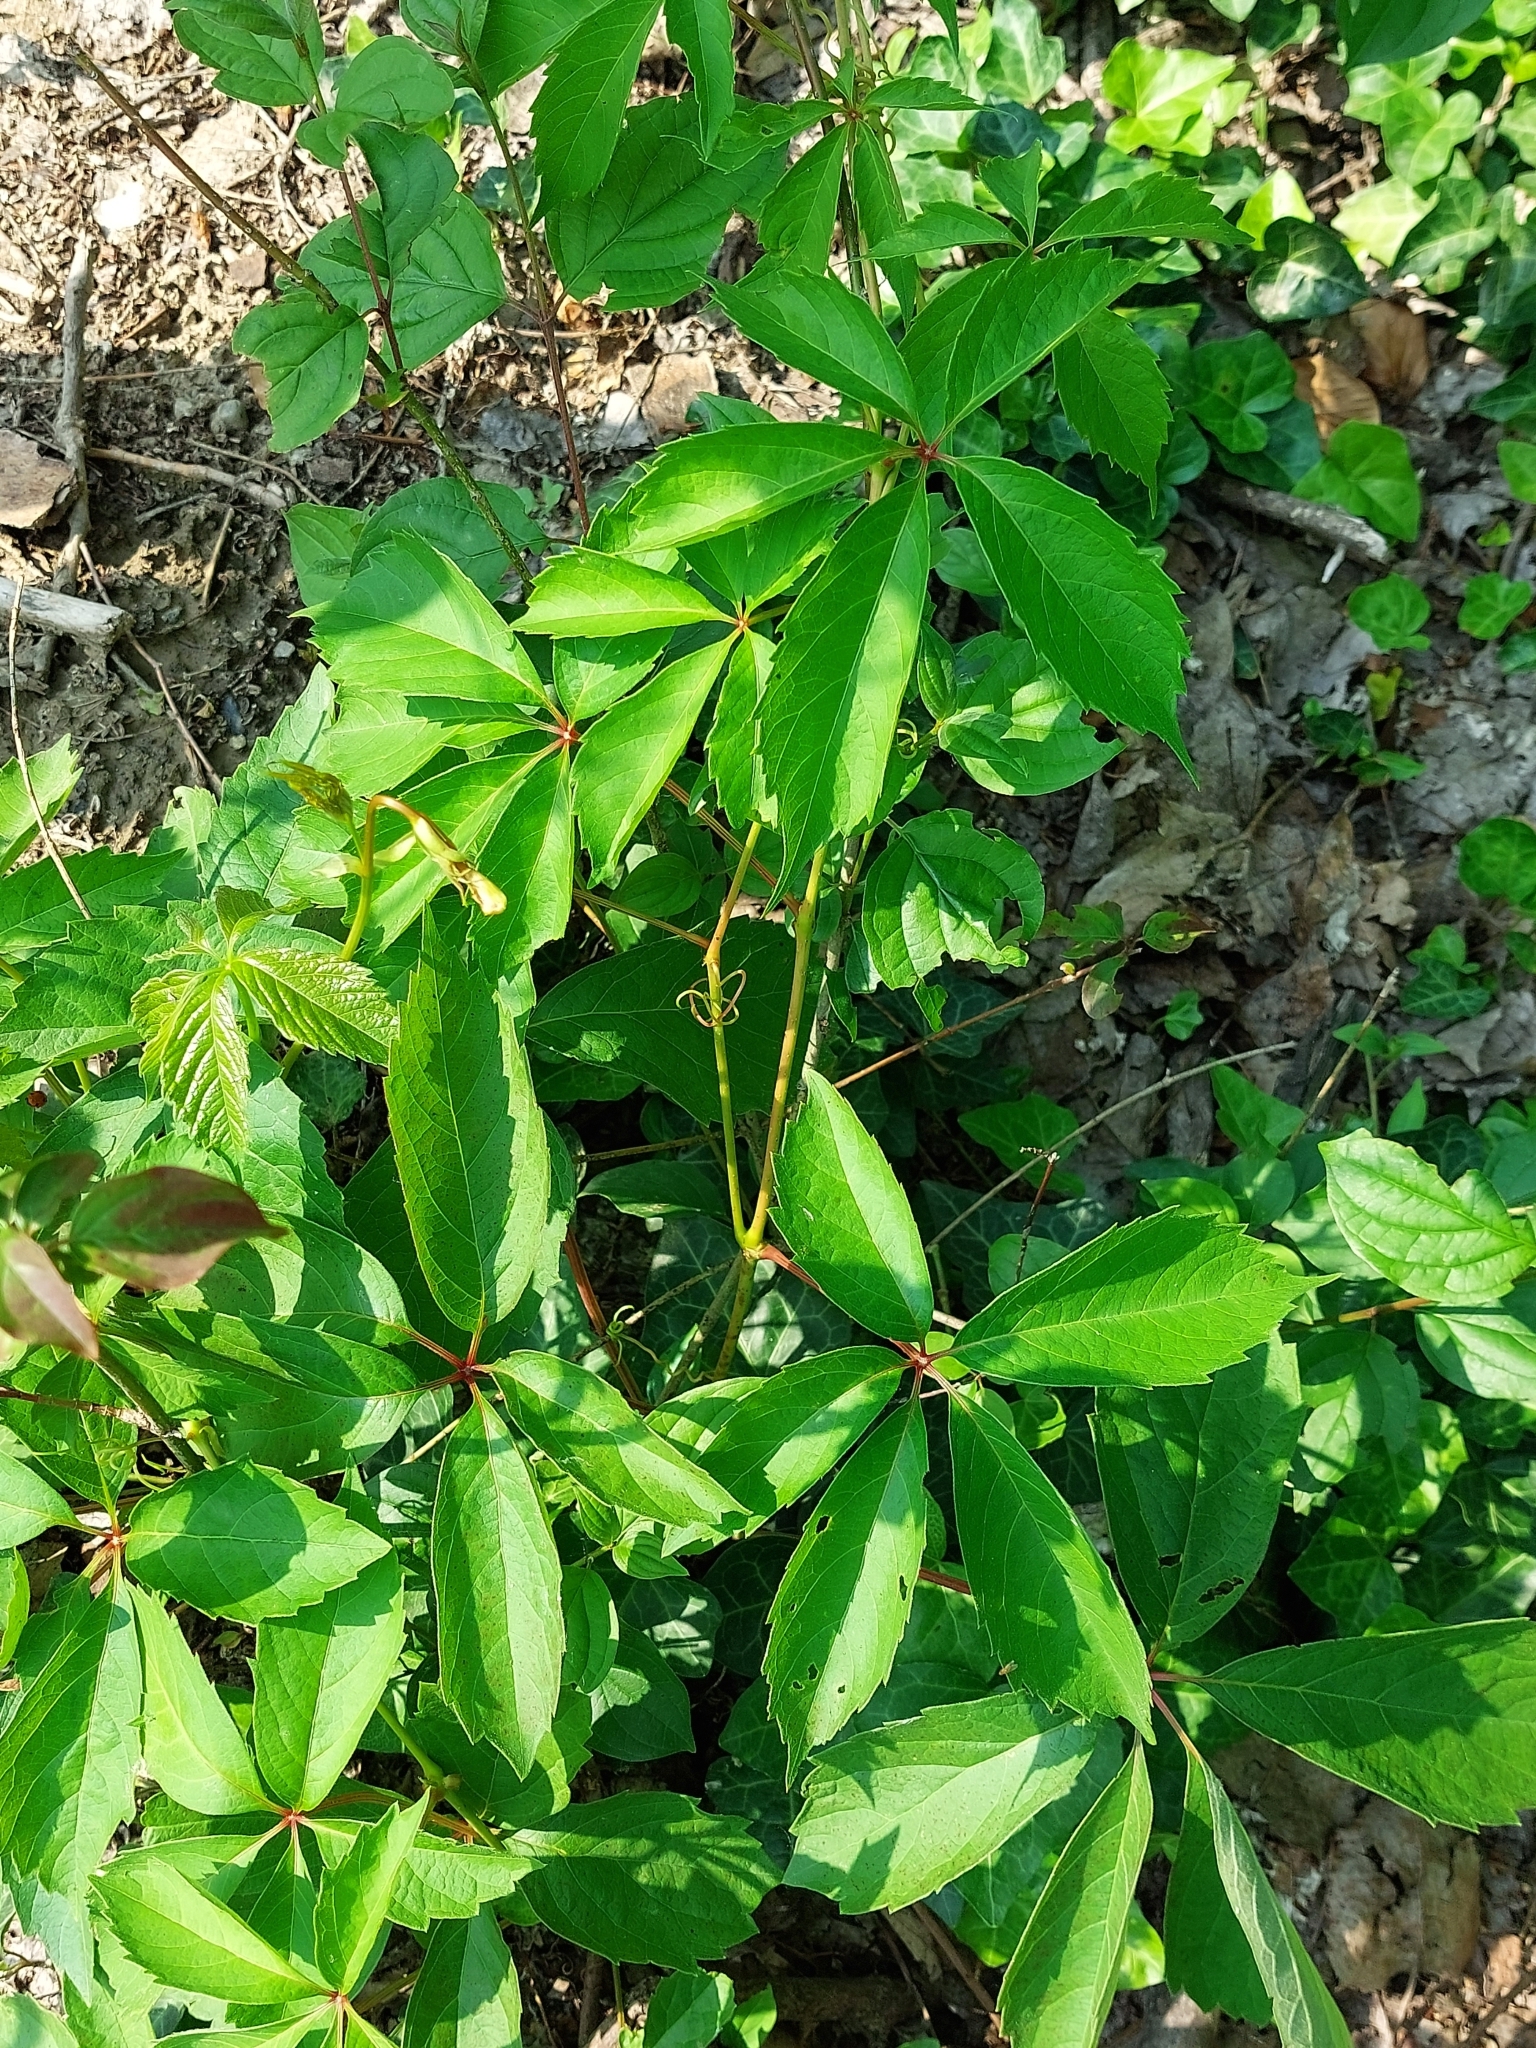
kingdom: Plantae
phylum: Tracheophyta
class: Magnoliopsida
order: Vitales
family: Vitaceae
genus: Parthenocissus
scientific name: Parthenocissus quinquefolia
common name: Virginia-creeper
